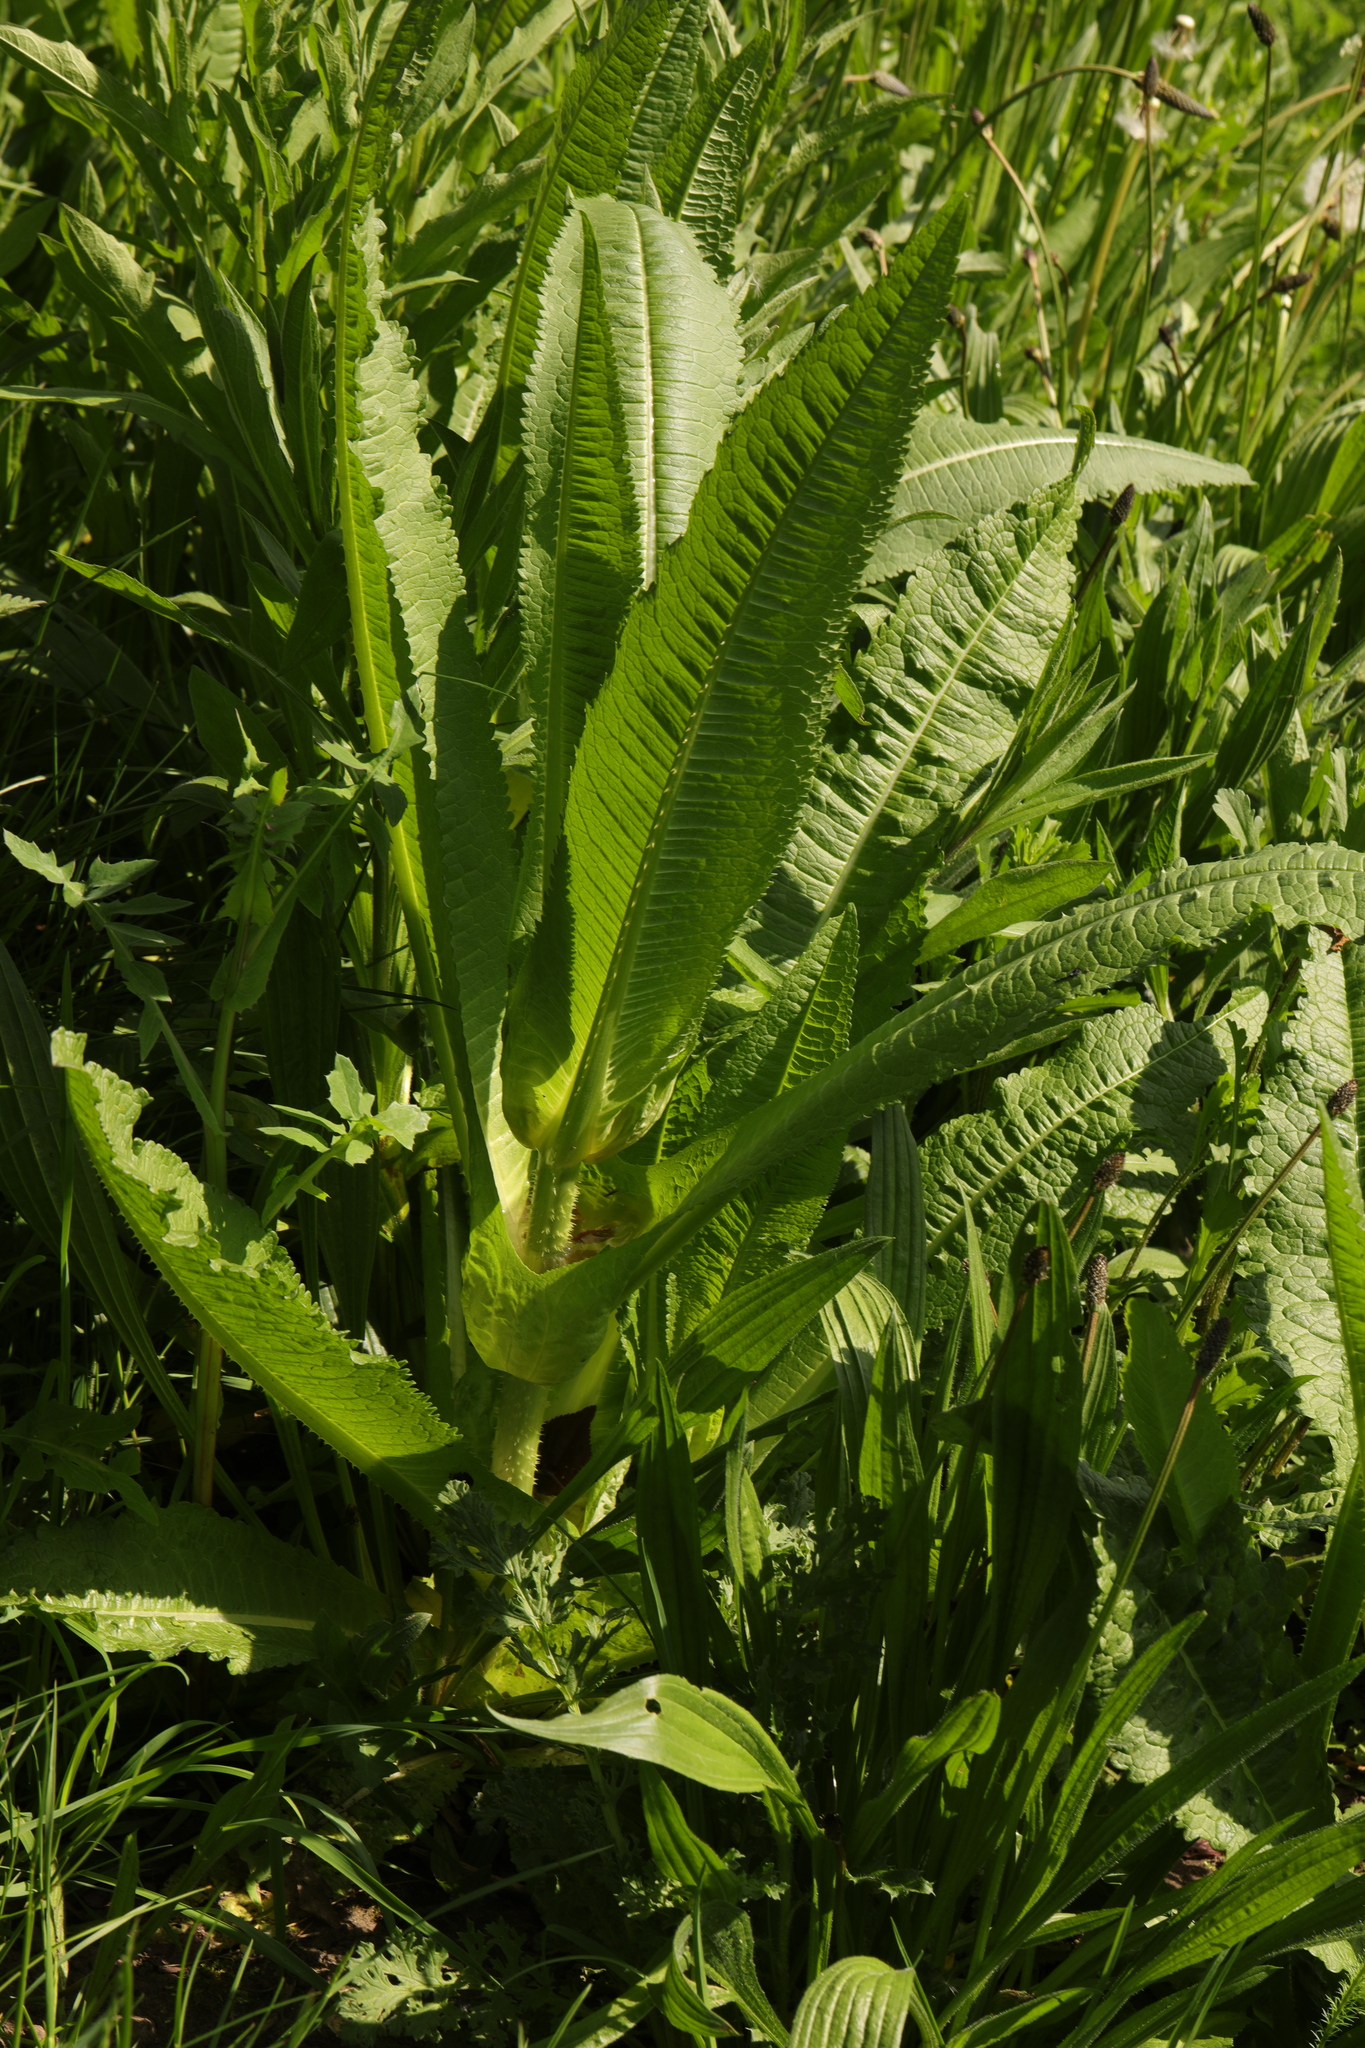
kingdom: Plantae
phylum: Tracheophyta
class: Magnoliopsida
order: Dipsacales
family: Caprifoliaceae
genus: Dipsacus
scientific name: Dipsacus fullonum
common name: Teasel
